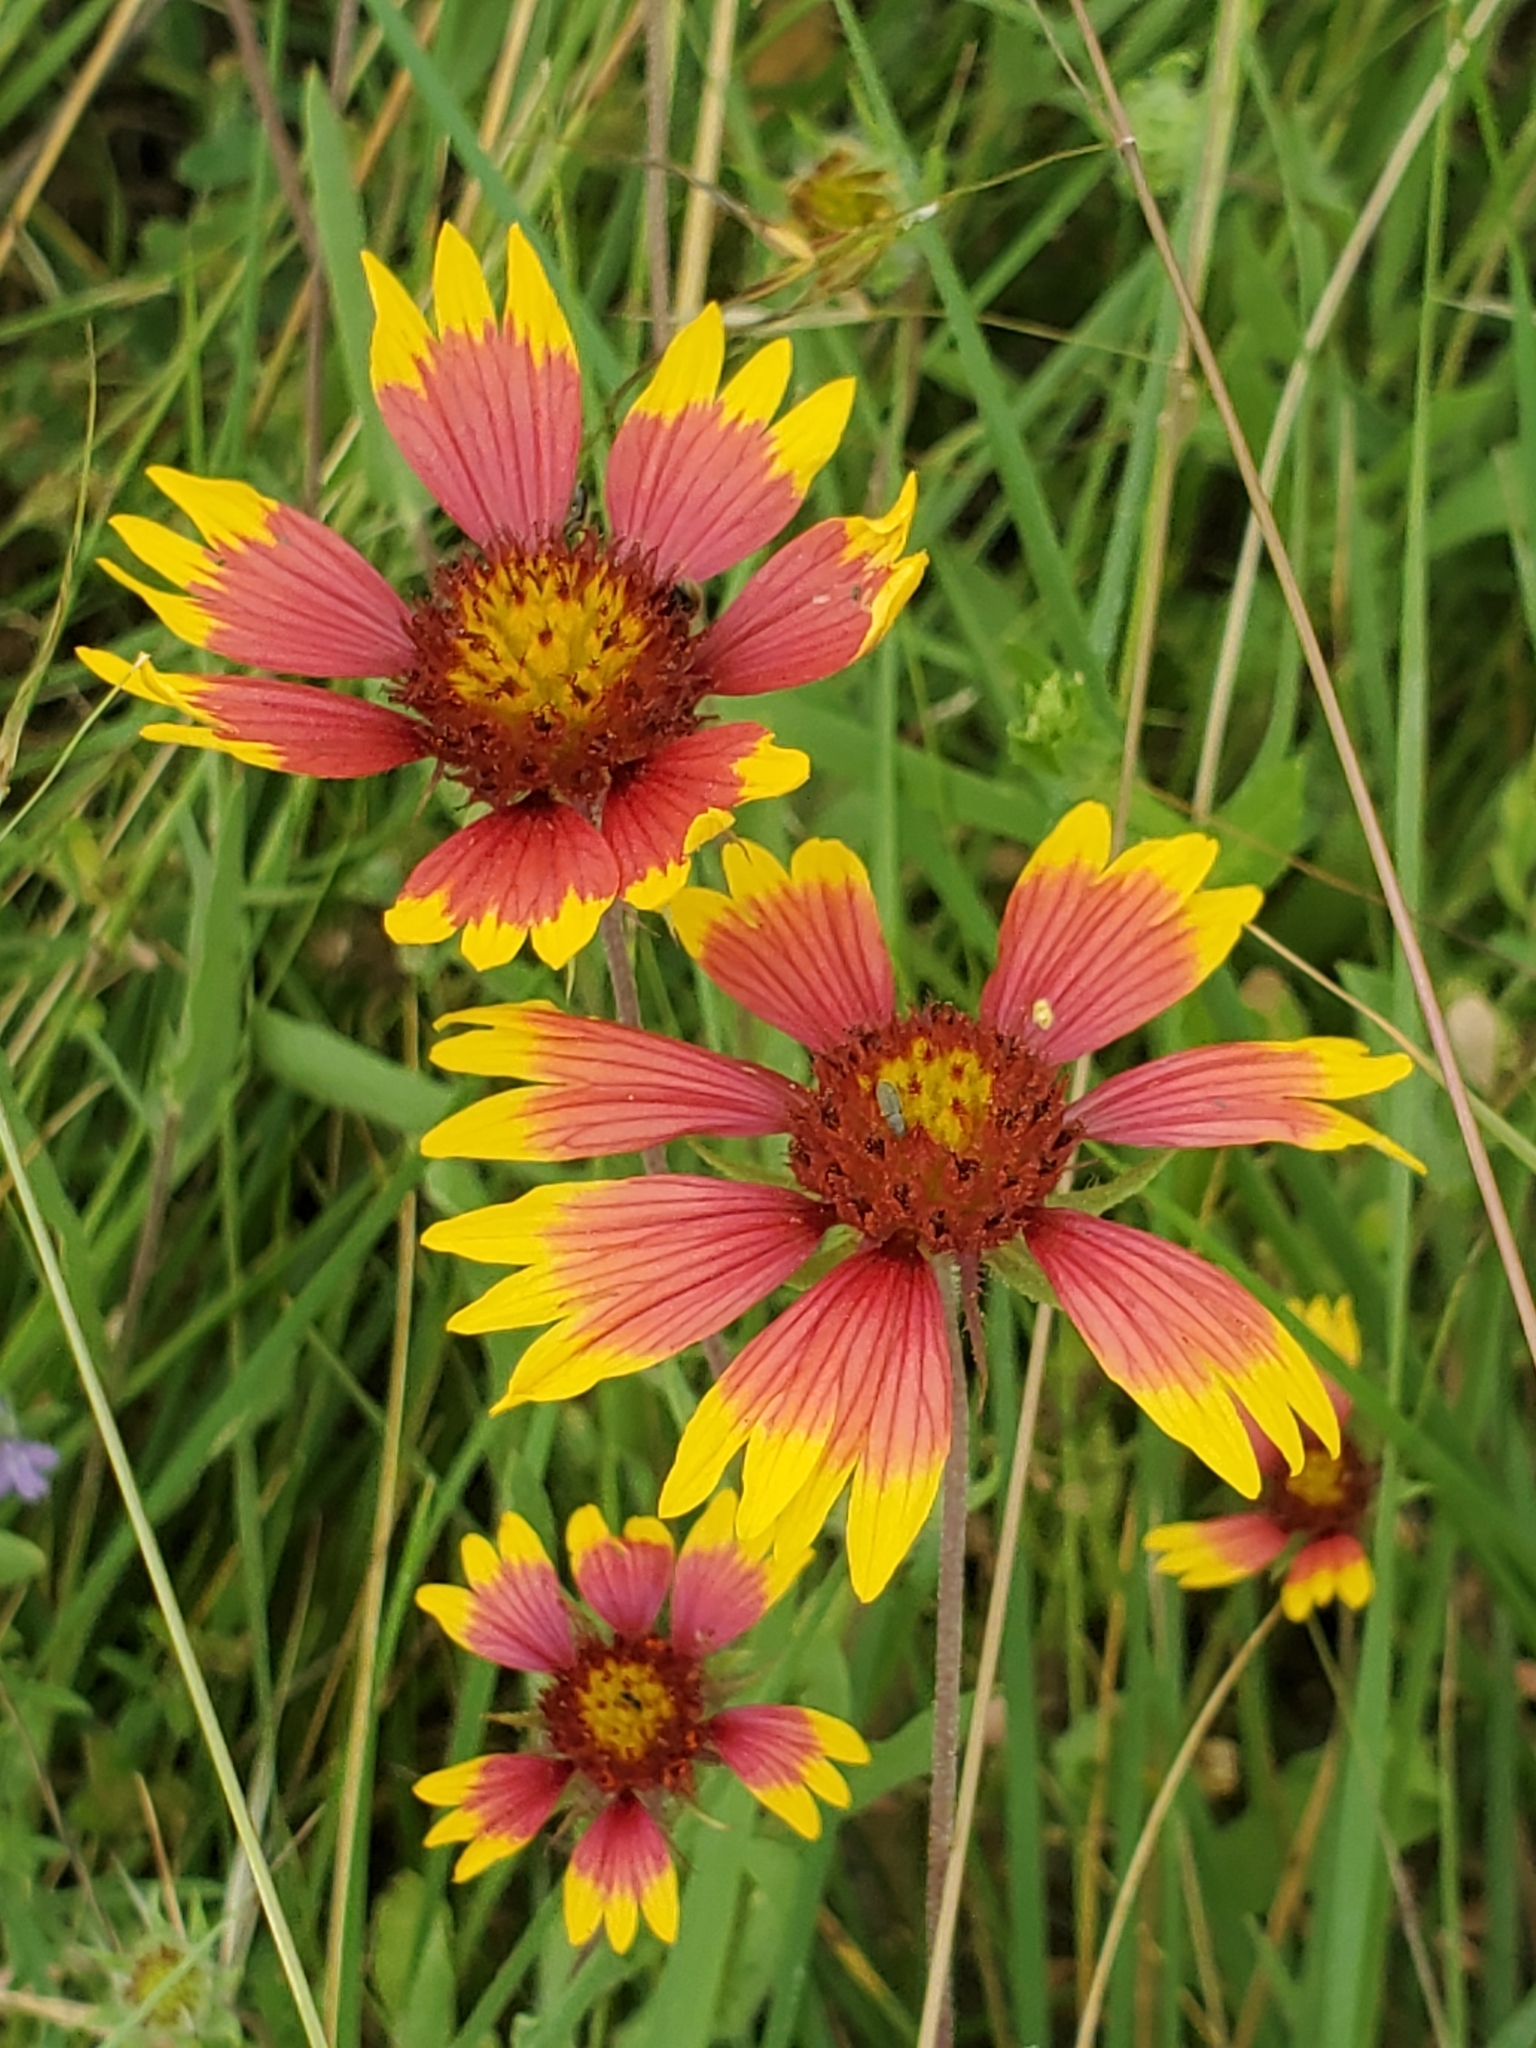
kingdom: Plantae
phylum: Tracheophyta
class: Magnoliopsida
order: Asterales
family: Asteraceae
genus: Gaillardia
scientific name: Gaillardia pulchella
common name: Firewheel
